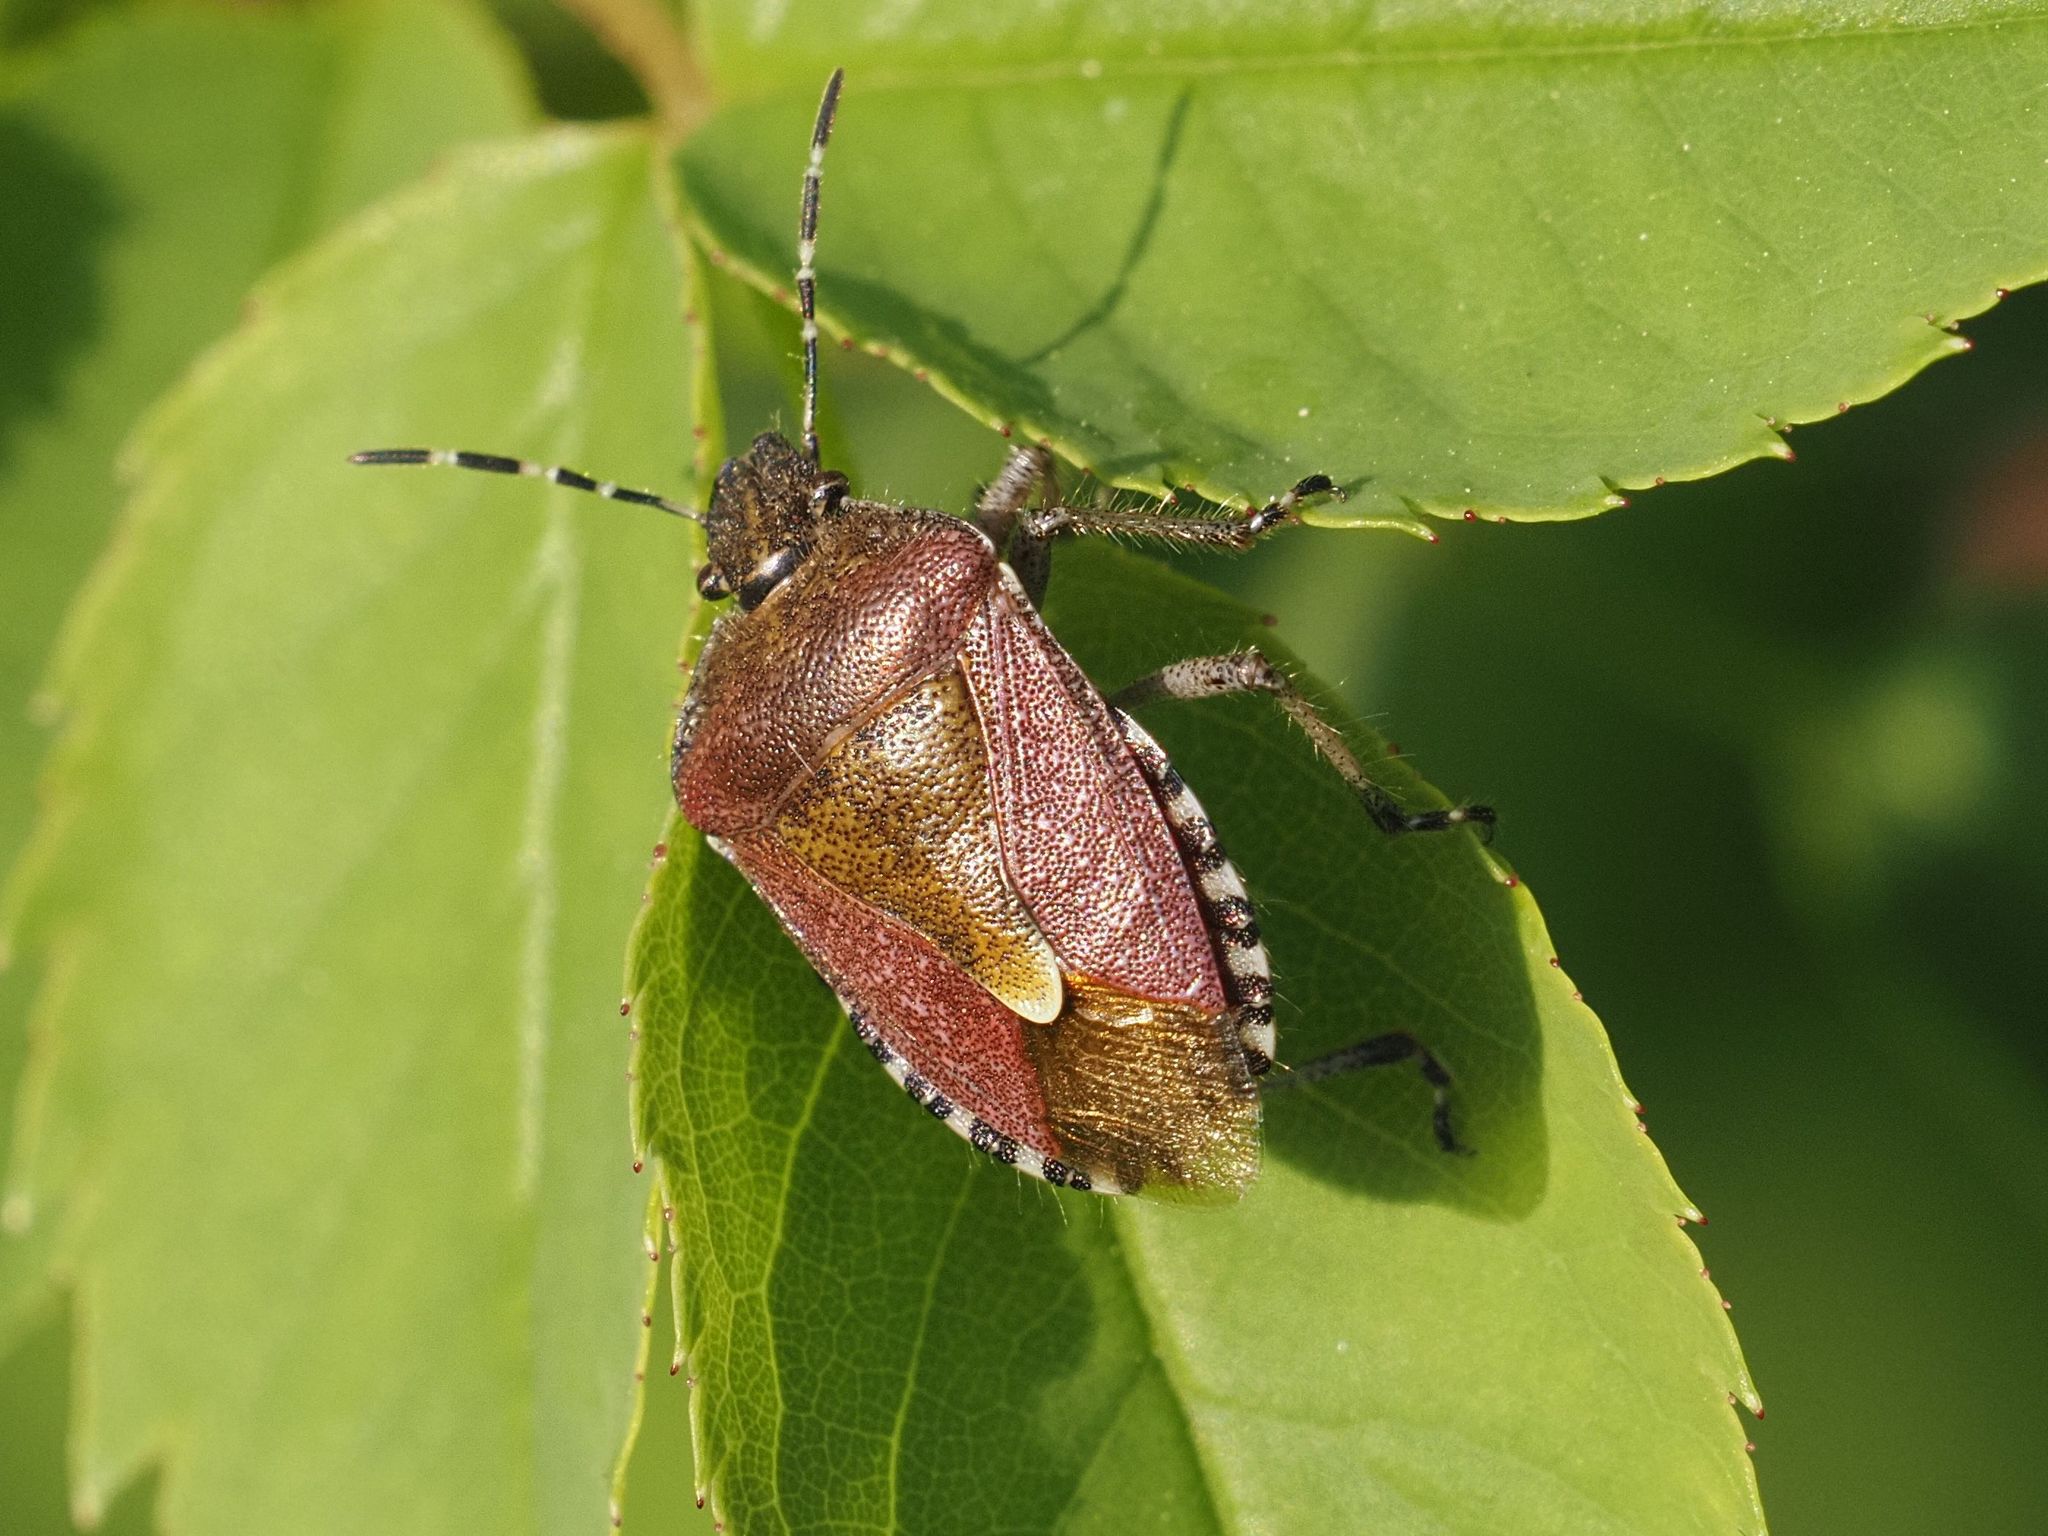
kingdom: Animalia
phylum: Arthropoda
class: Insecta
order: Hemiptera
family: Pentatomidae
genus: Dolycoris
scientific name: Dolycoris baccarum
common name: Sloe bug
